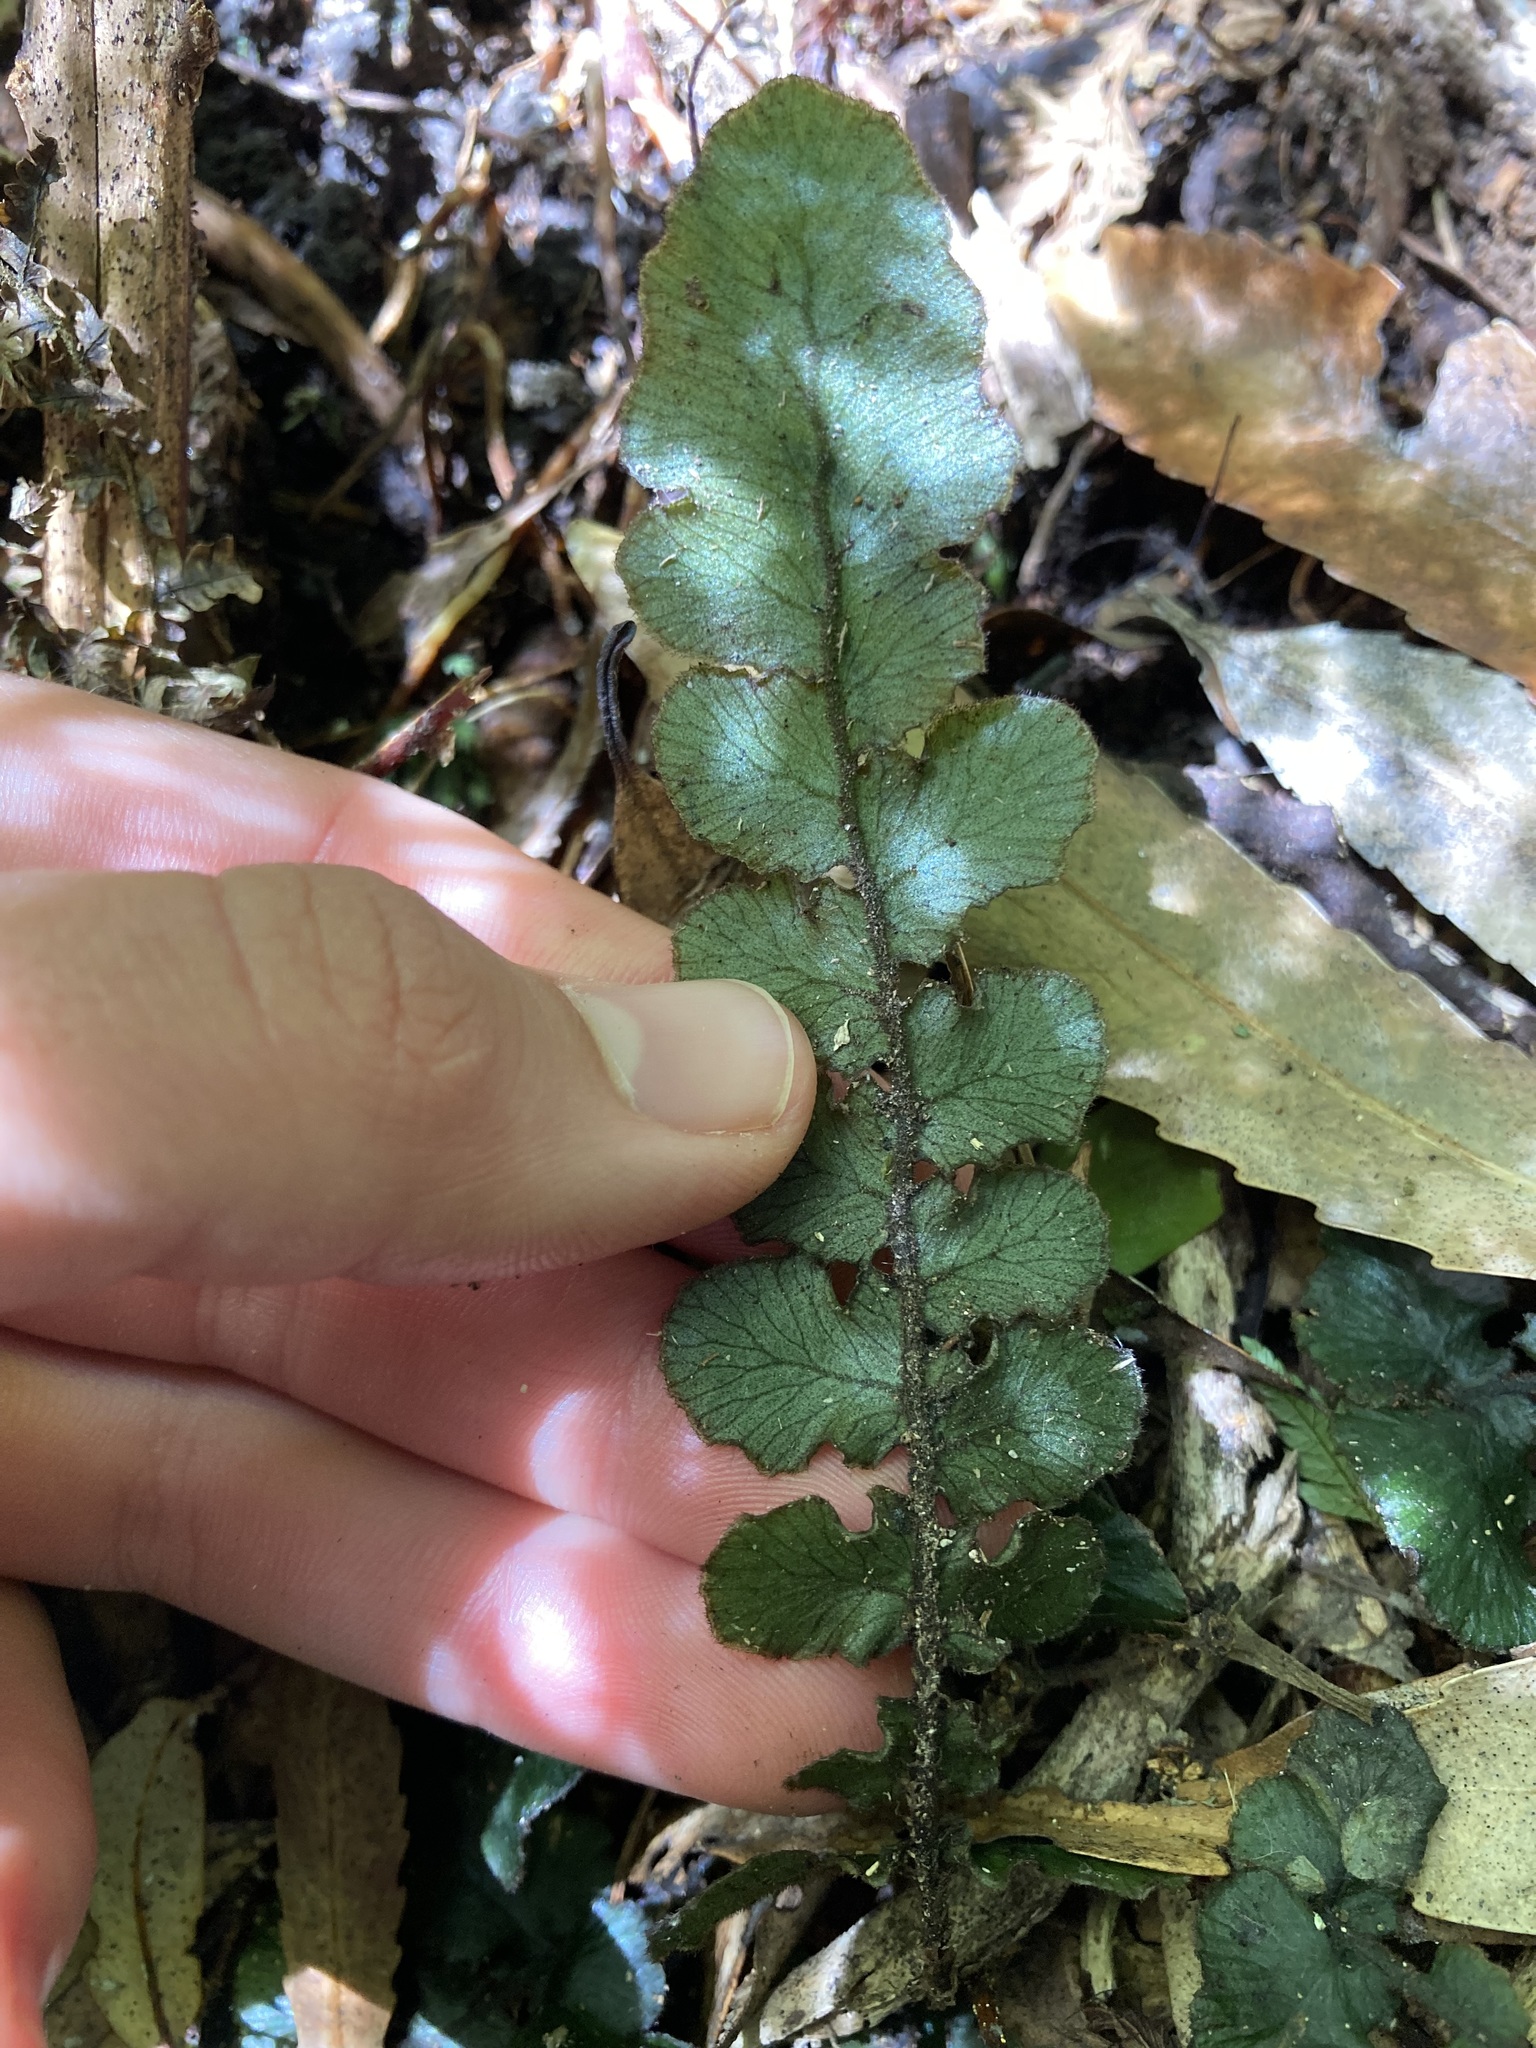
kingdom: Plantae
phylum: Tracheophyta
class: Polypodiopsida
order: Polypodiales
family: Blechnaceae
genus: Cranfillia
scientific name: Cranfillia nigra
